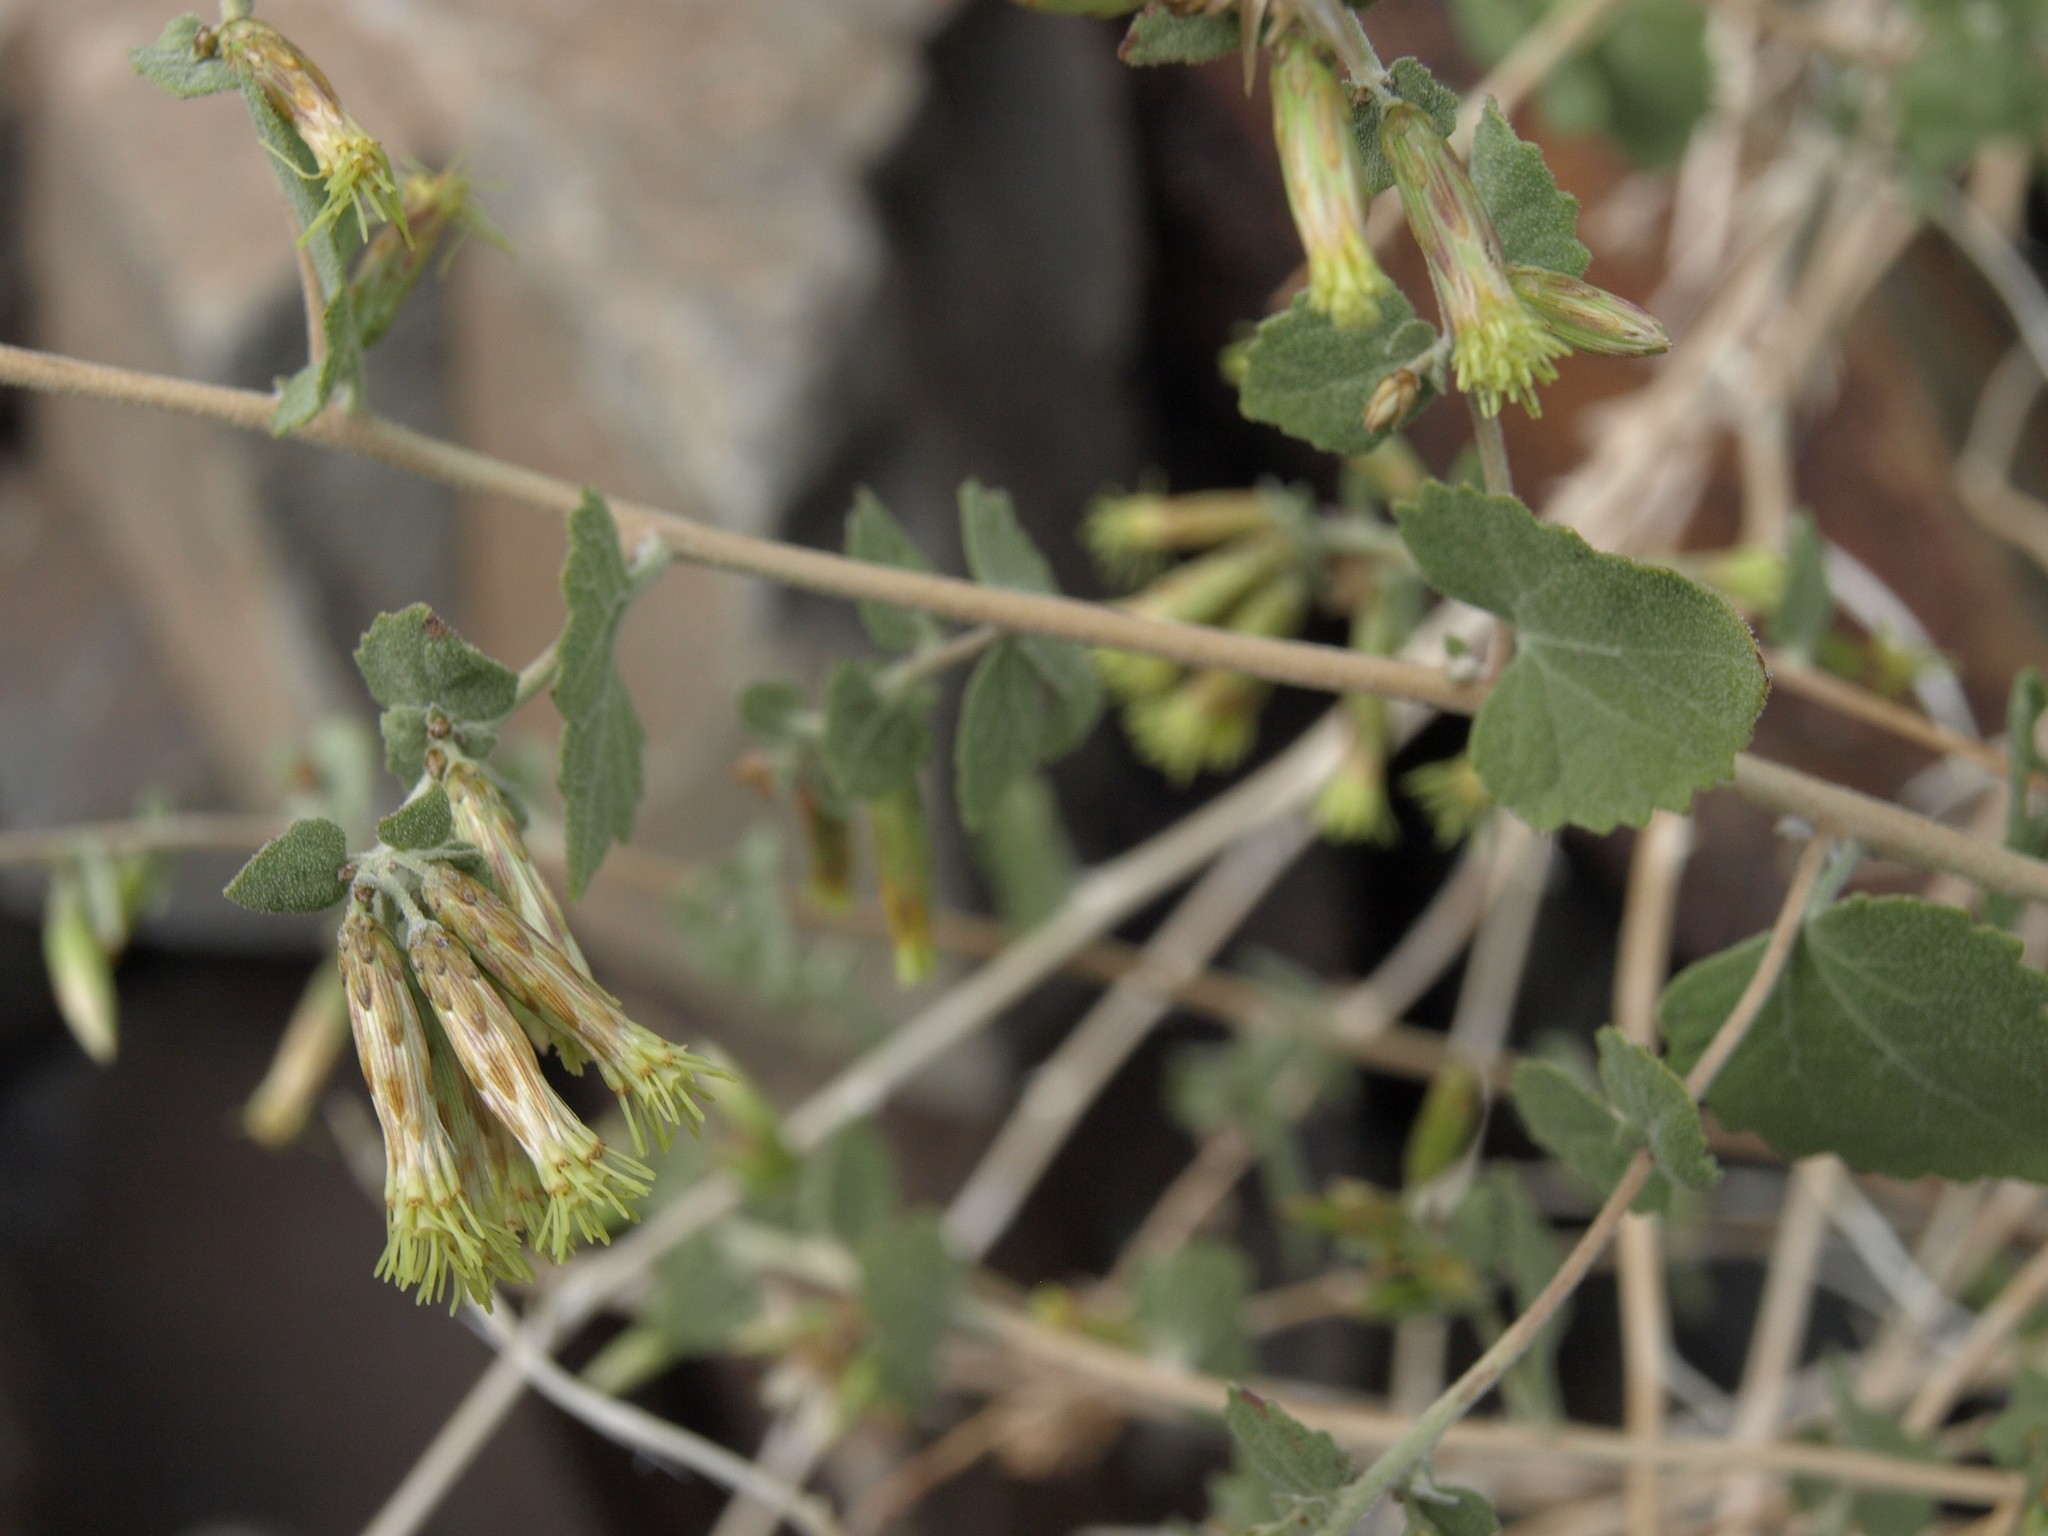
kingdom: Plantae
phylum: Tracheophyta
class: Magnoliopsida
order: Asterales
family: Asteraceae
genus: Brickellia
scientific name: Brickellia californica
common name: California brickellbush
